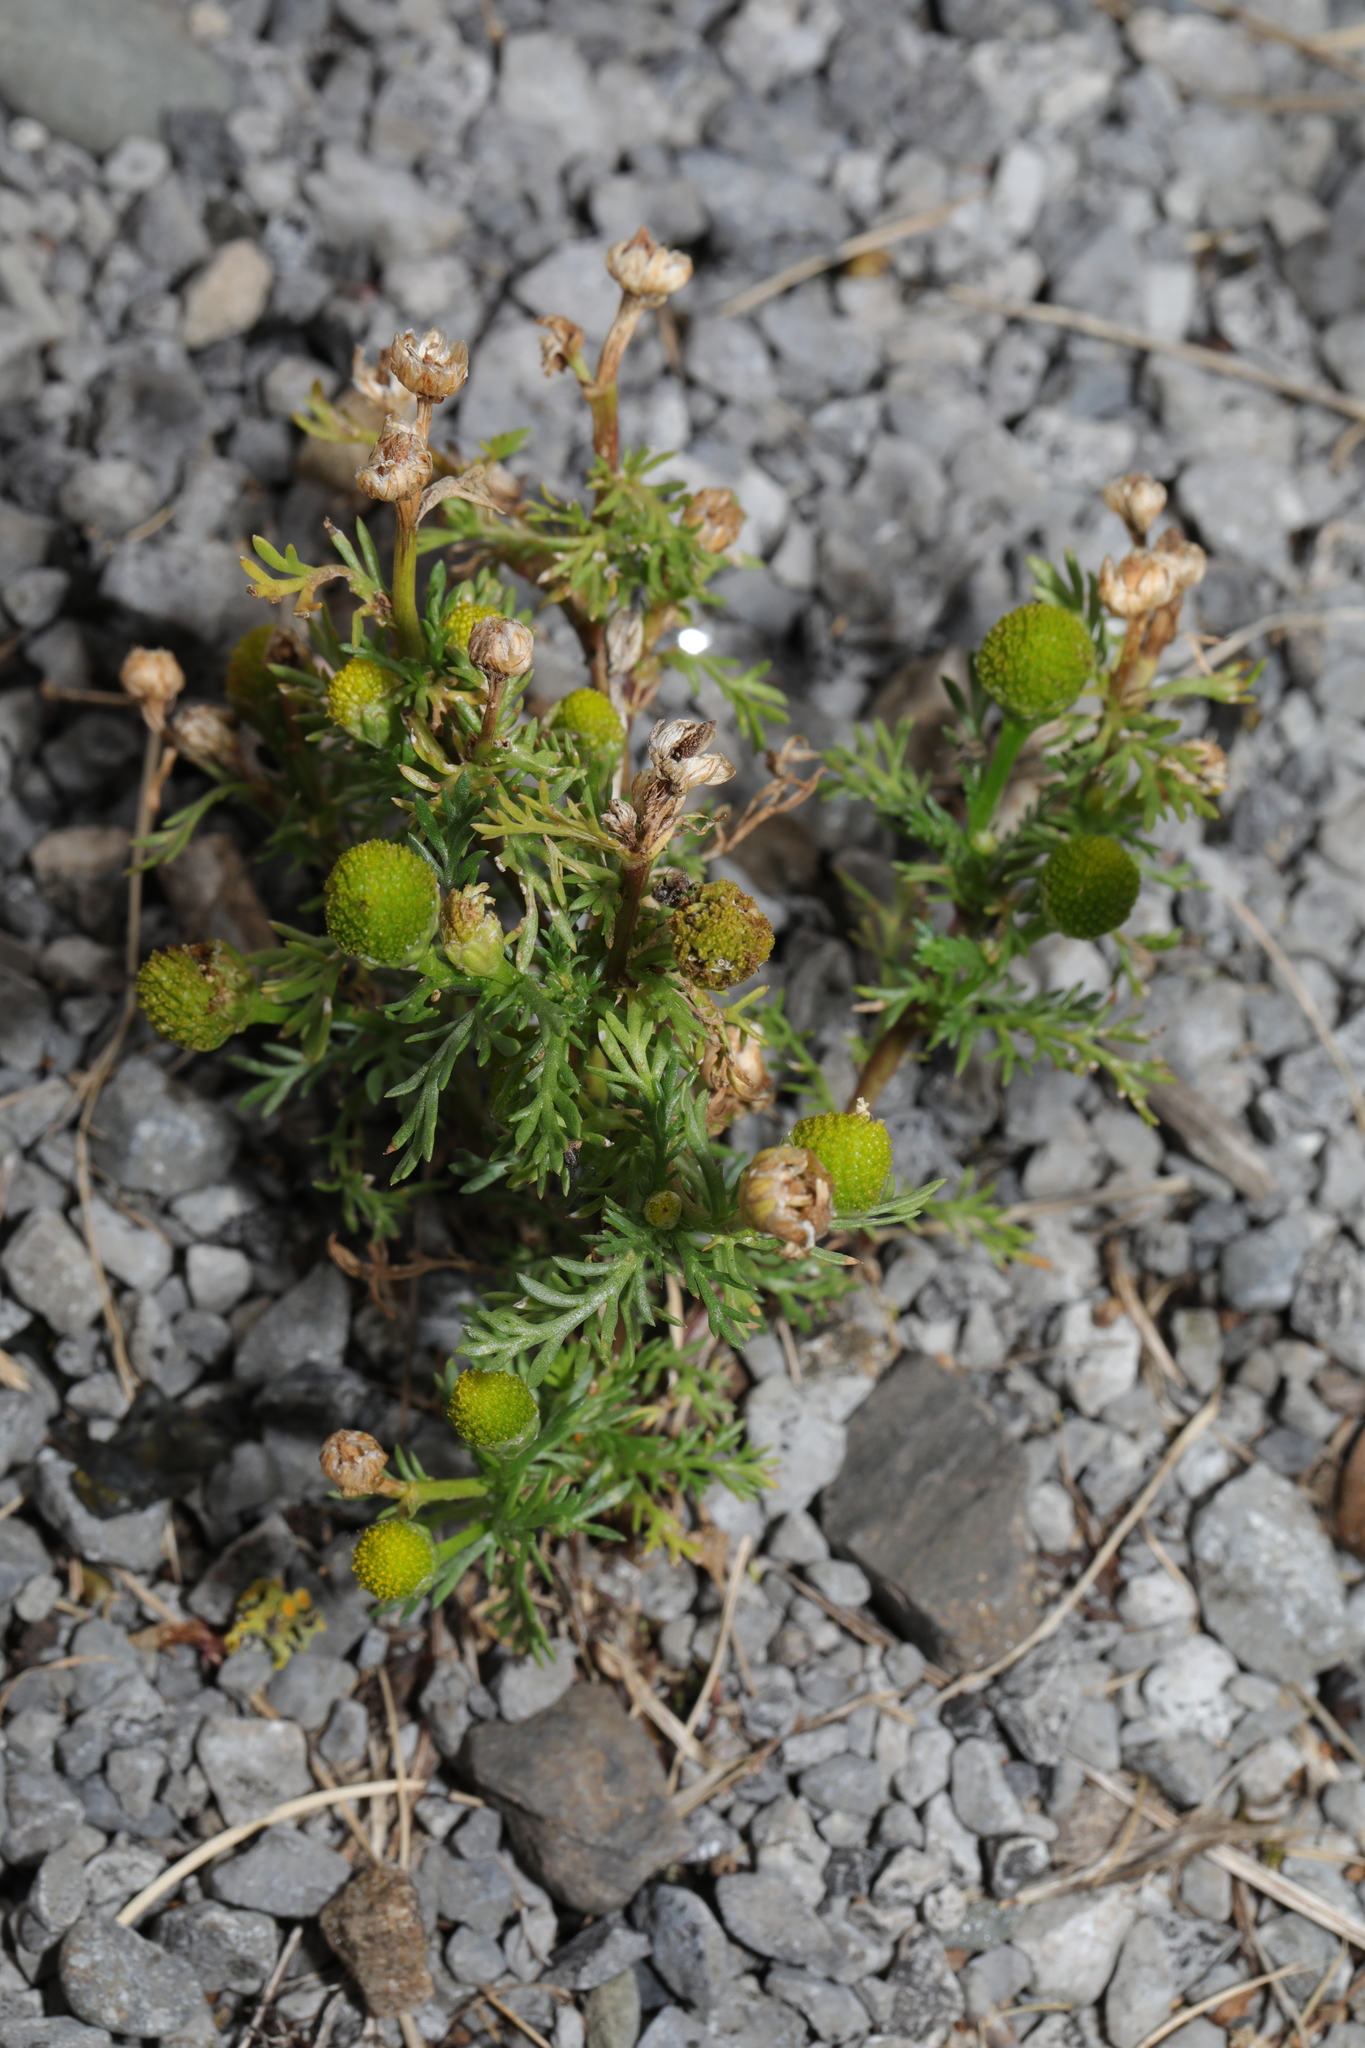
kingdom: Plantae
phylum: Tracheophyta
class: Magnoliopsida
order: Asterales
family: Asteraceae
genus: Matricaria
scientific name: Matricaria discoidea
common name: Disc mayweed
